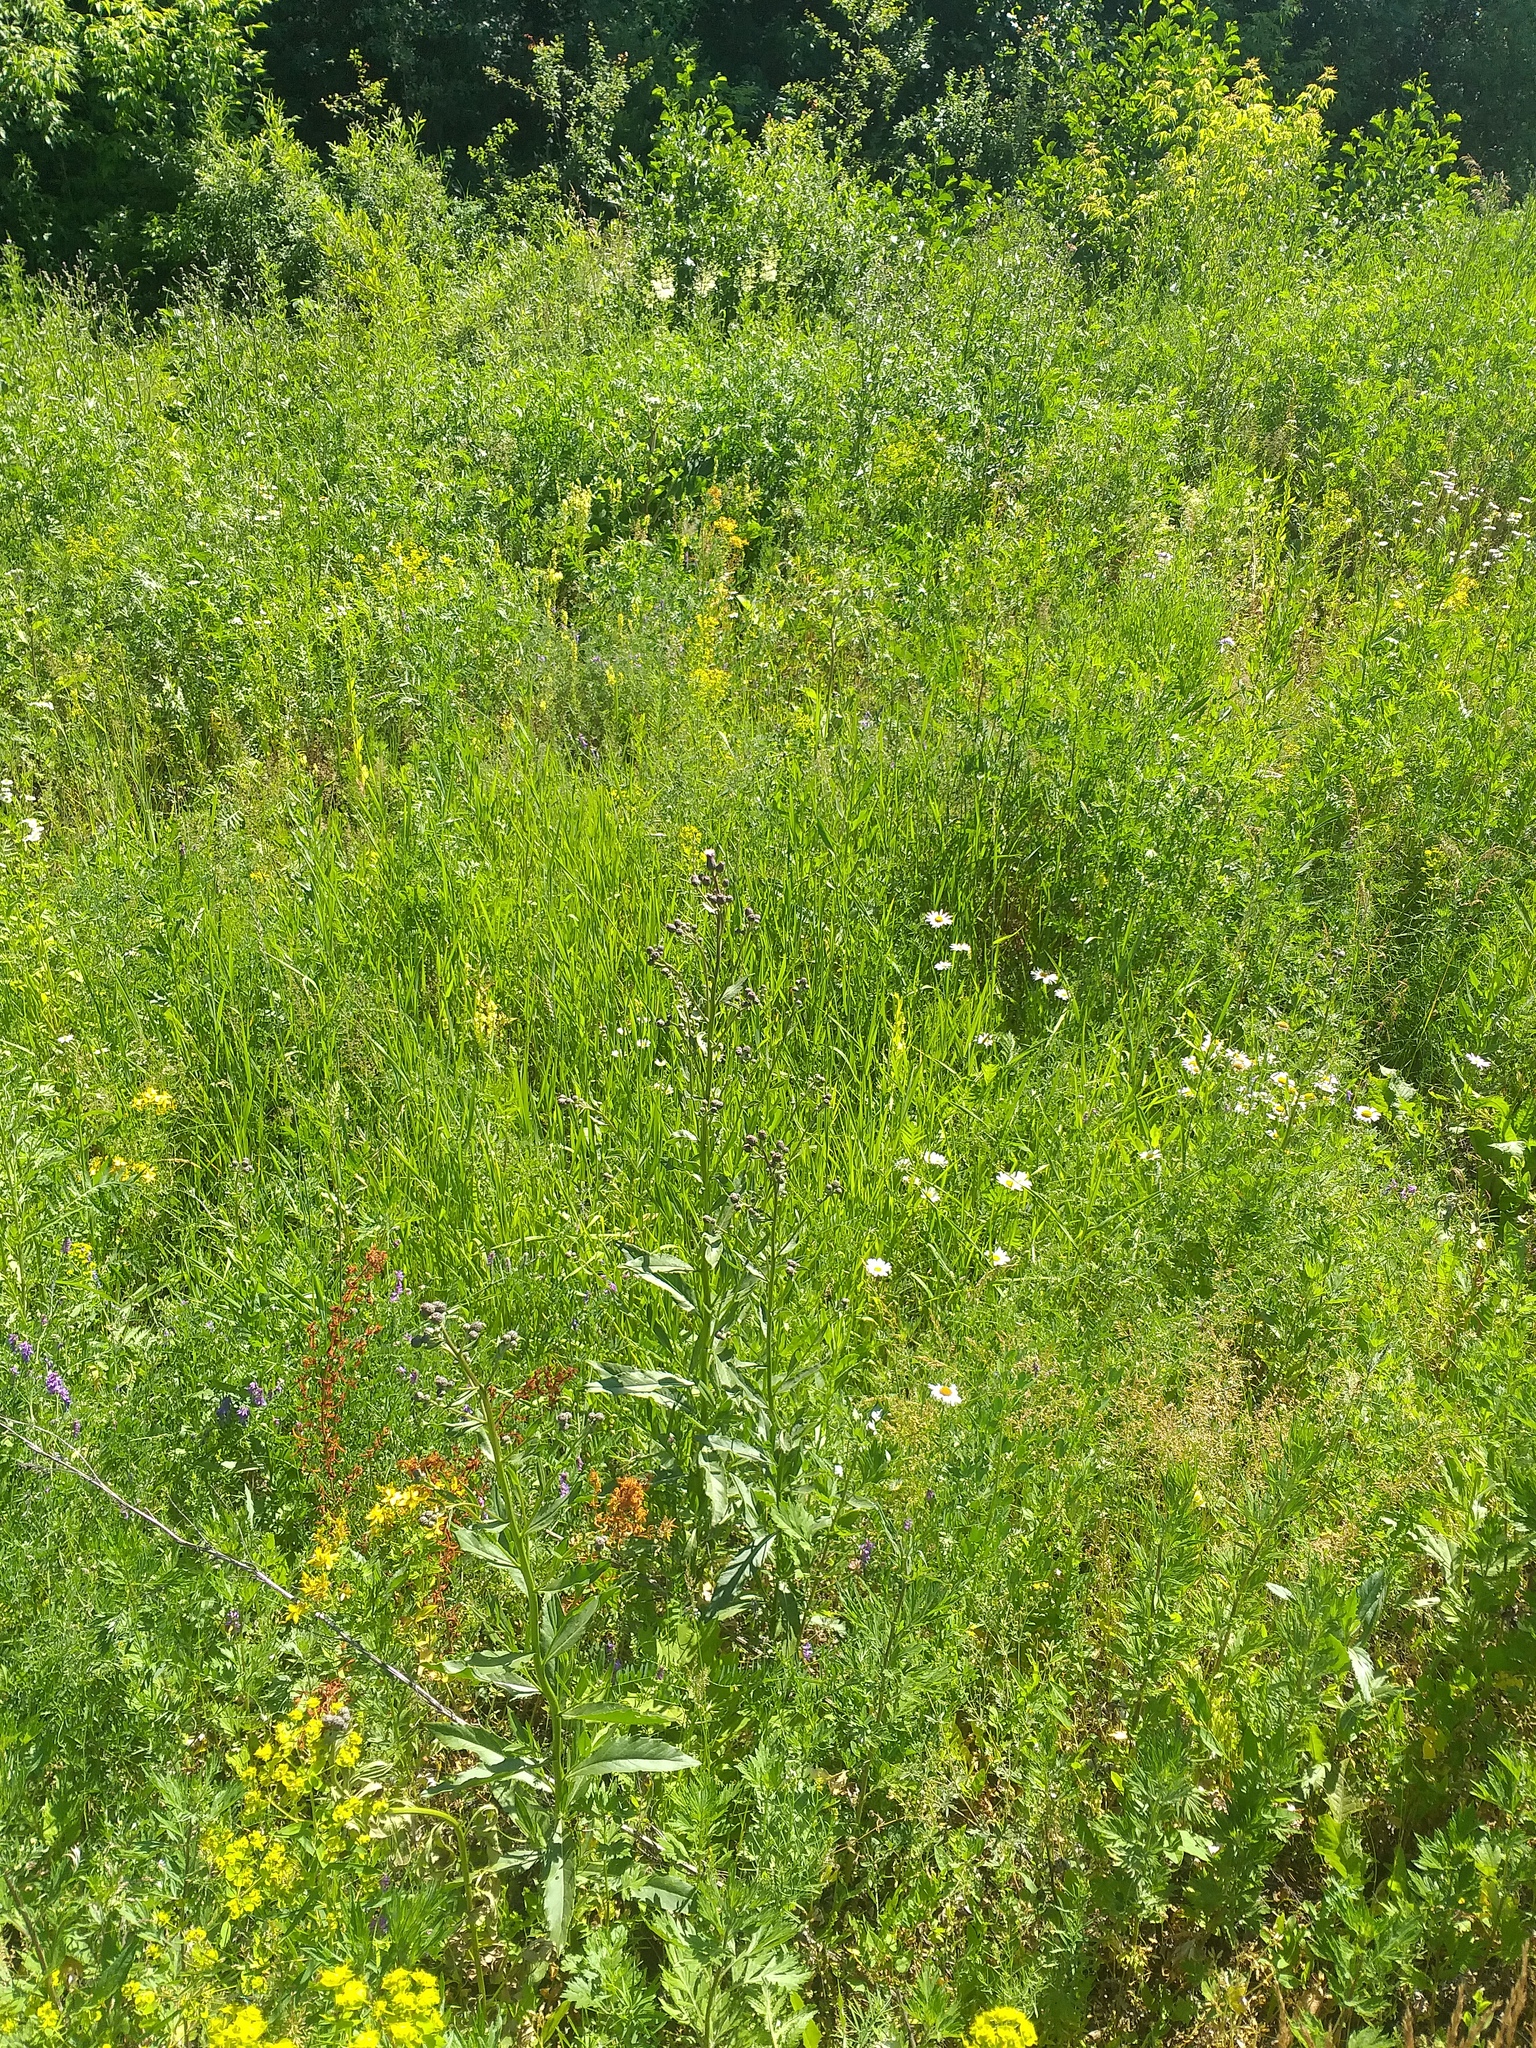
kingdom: Plantae
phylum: Tracheophyta
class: Magnoliopsida
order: Asterales
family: Asteraceae
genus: Cirsium
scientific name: Cirsium arvense
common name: Creeping thistle
